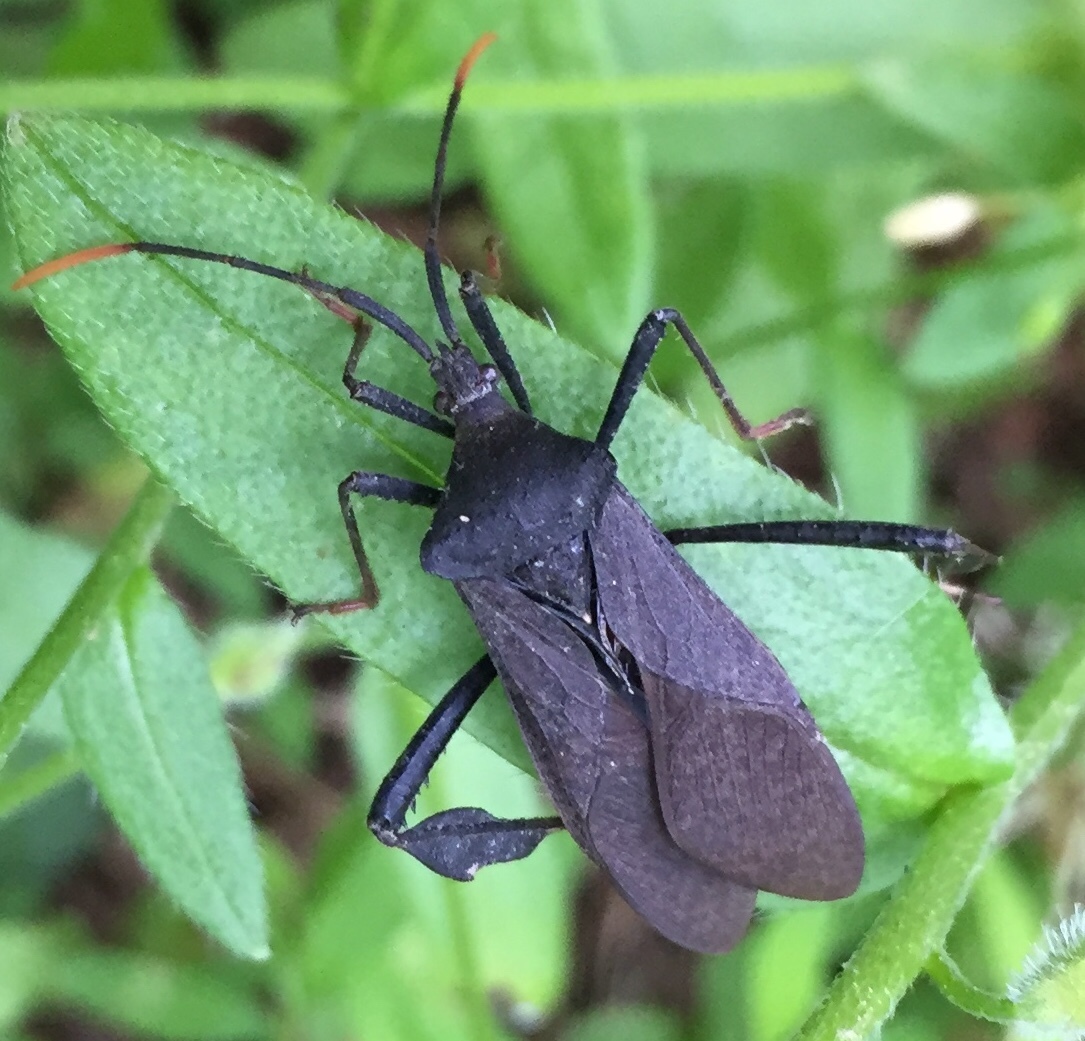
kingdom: Animalia
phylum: Arthropoda
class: Insecta
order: Hemiptera
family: Coreidae
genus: Acanthocephala
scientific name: Acanthocephala terminalis
